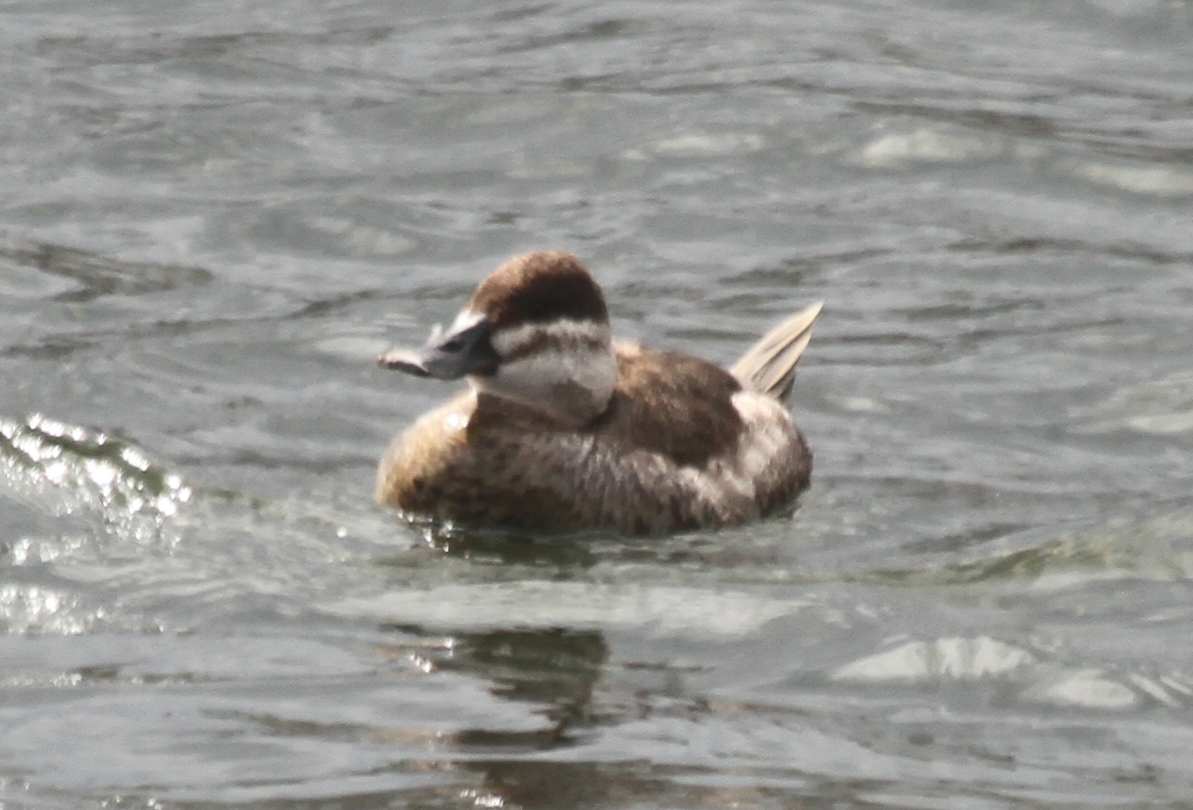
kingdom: Animalia
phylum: Chordata
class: Aves
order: Anseriformes
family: Anatidae
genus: Oxyura
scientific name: Oxyura jamaicensis
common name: Ruddy duck
